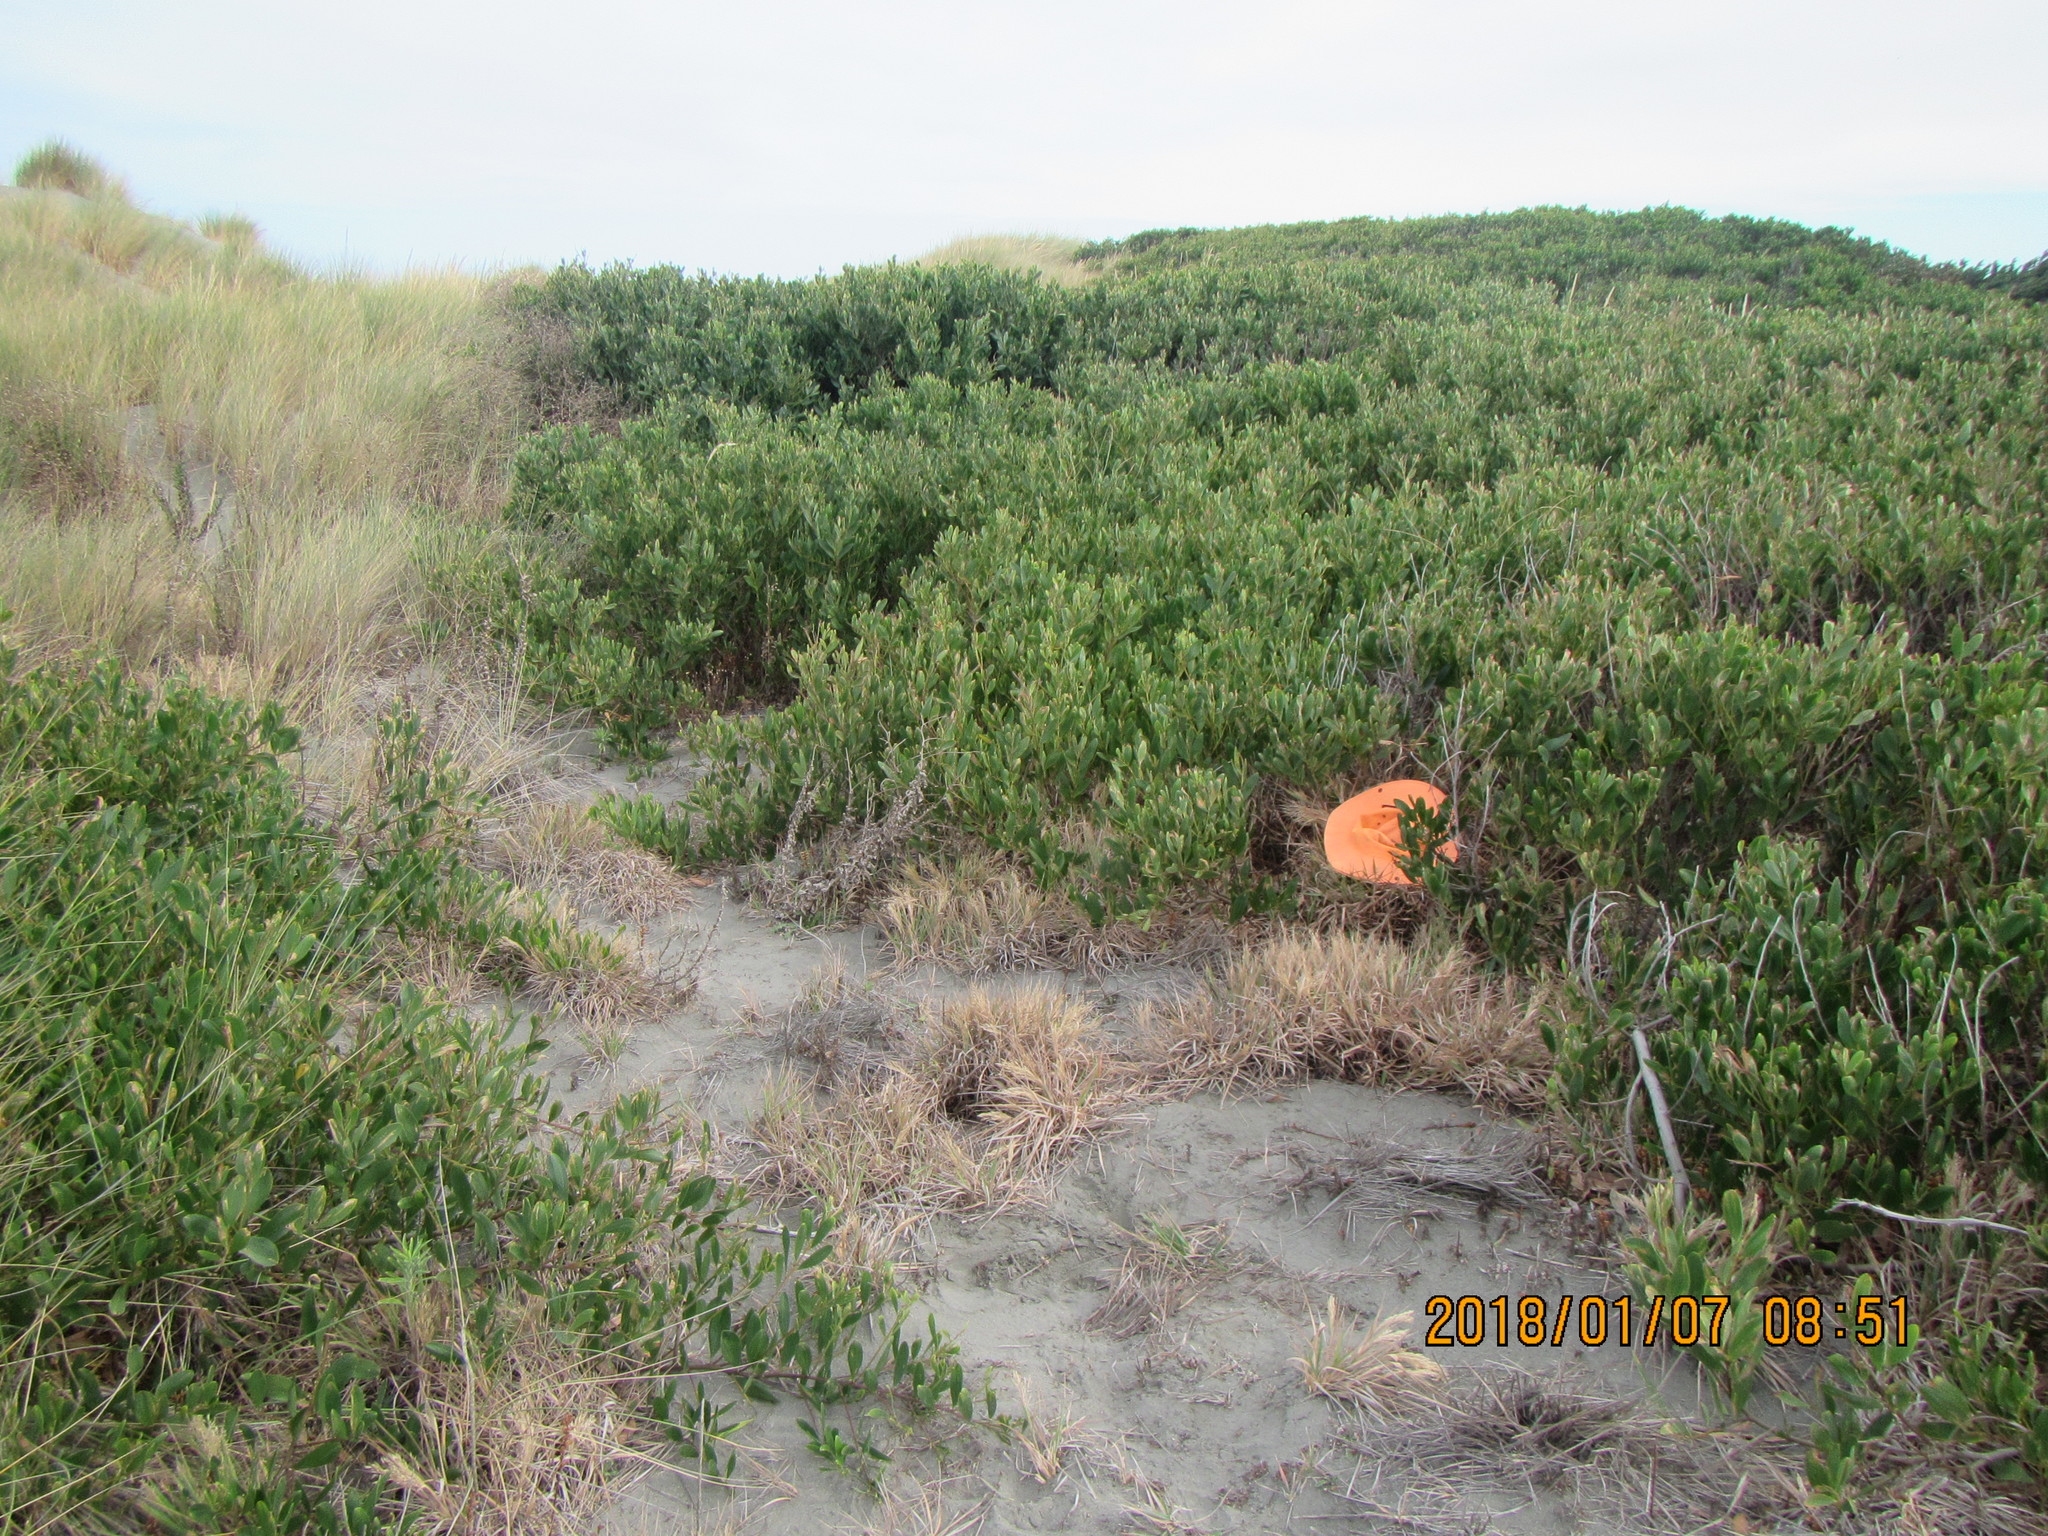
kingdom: Animalia
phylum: Arthropoda
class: Arachnida
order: Araneae
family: Araneidae
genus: Argiope
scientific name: Argiope protensa
